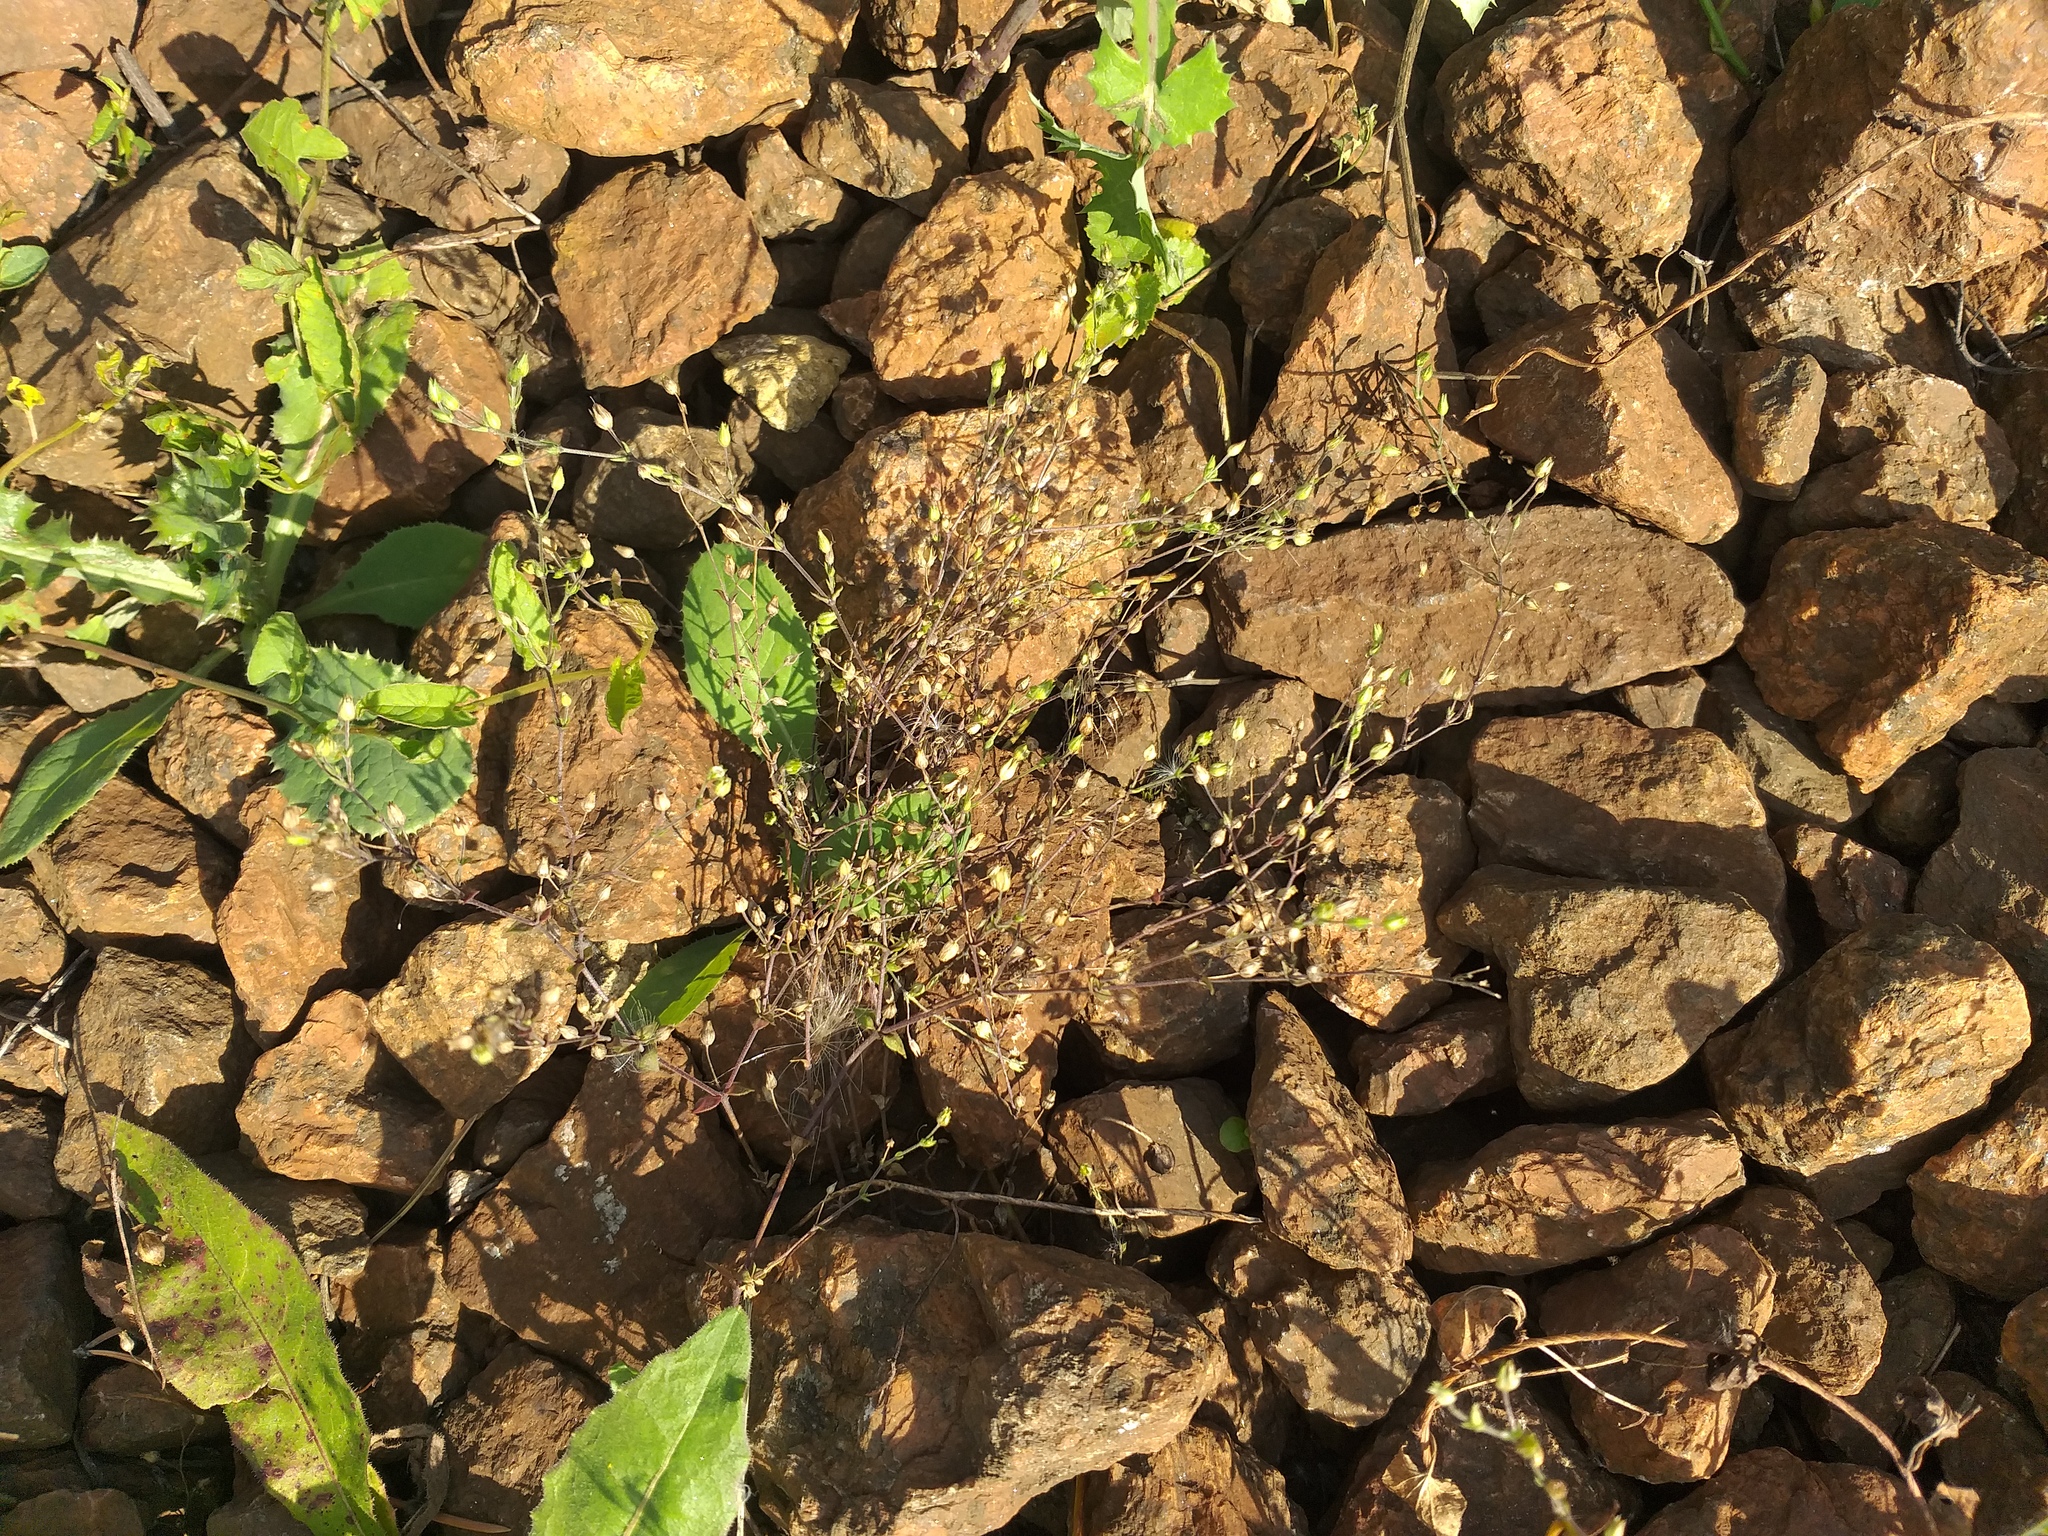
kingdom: Plantae
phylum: Tracheophyta
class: Magnoliopsida
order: Caryophyllales
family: Caryophyllaceae
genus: Arenaria
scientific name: Arenaria serpyllifolia
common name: Thyme-leaved sandwort
